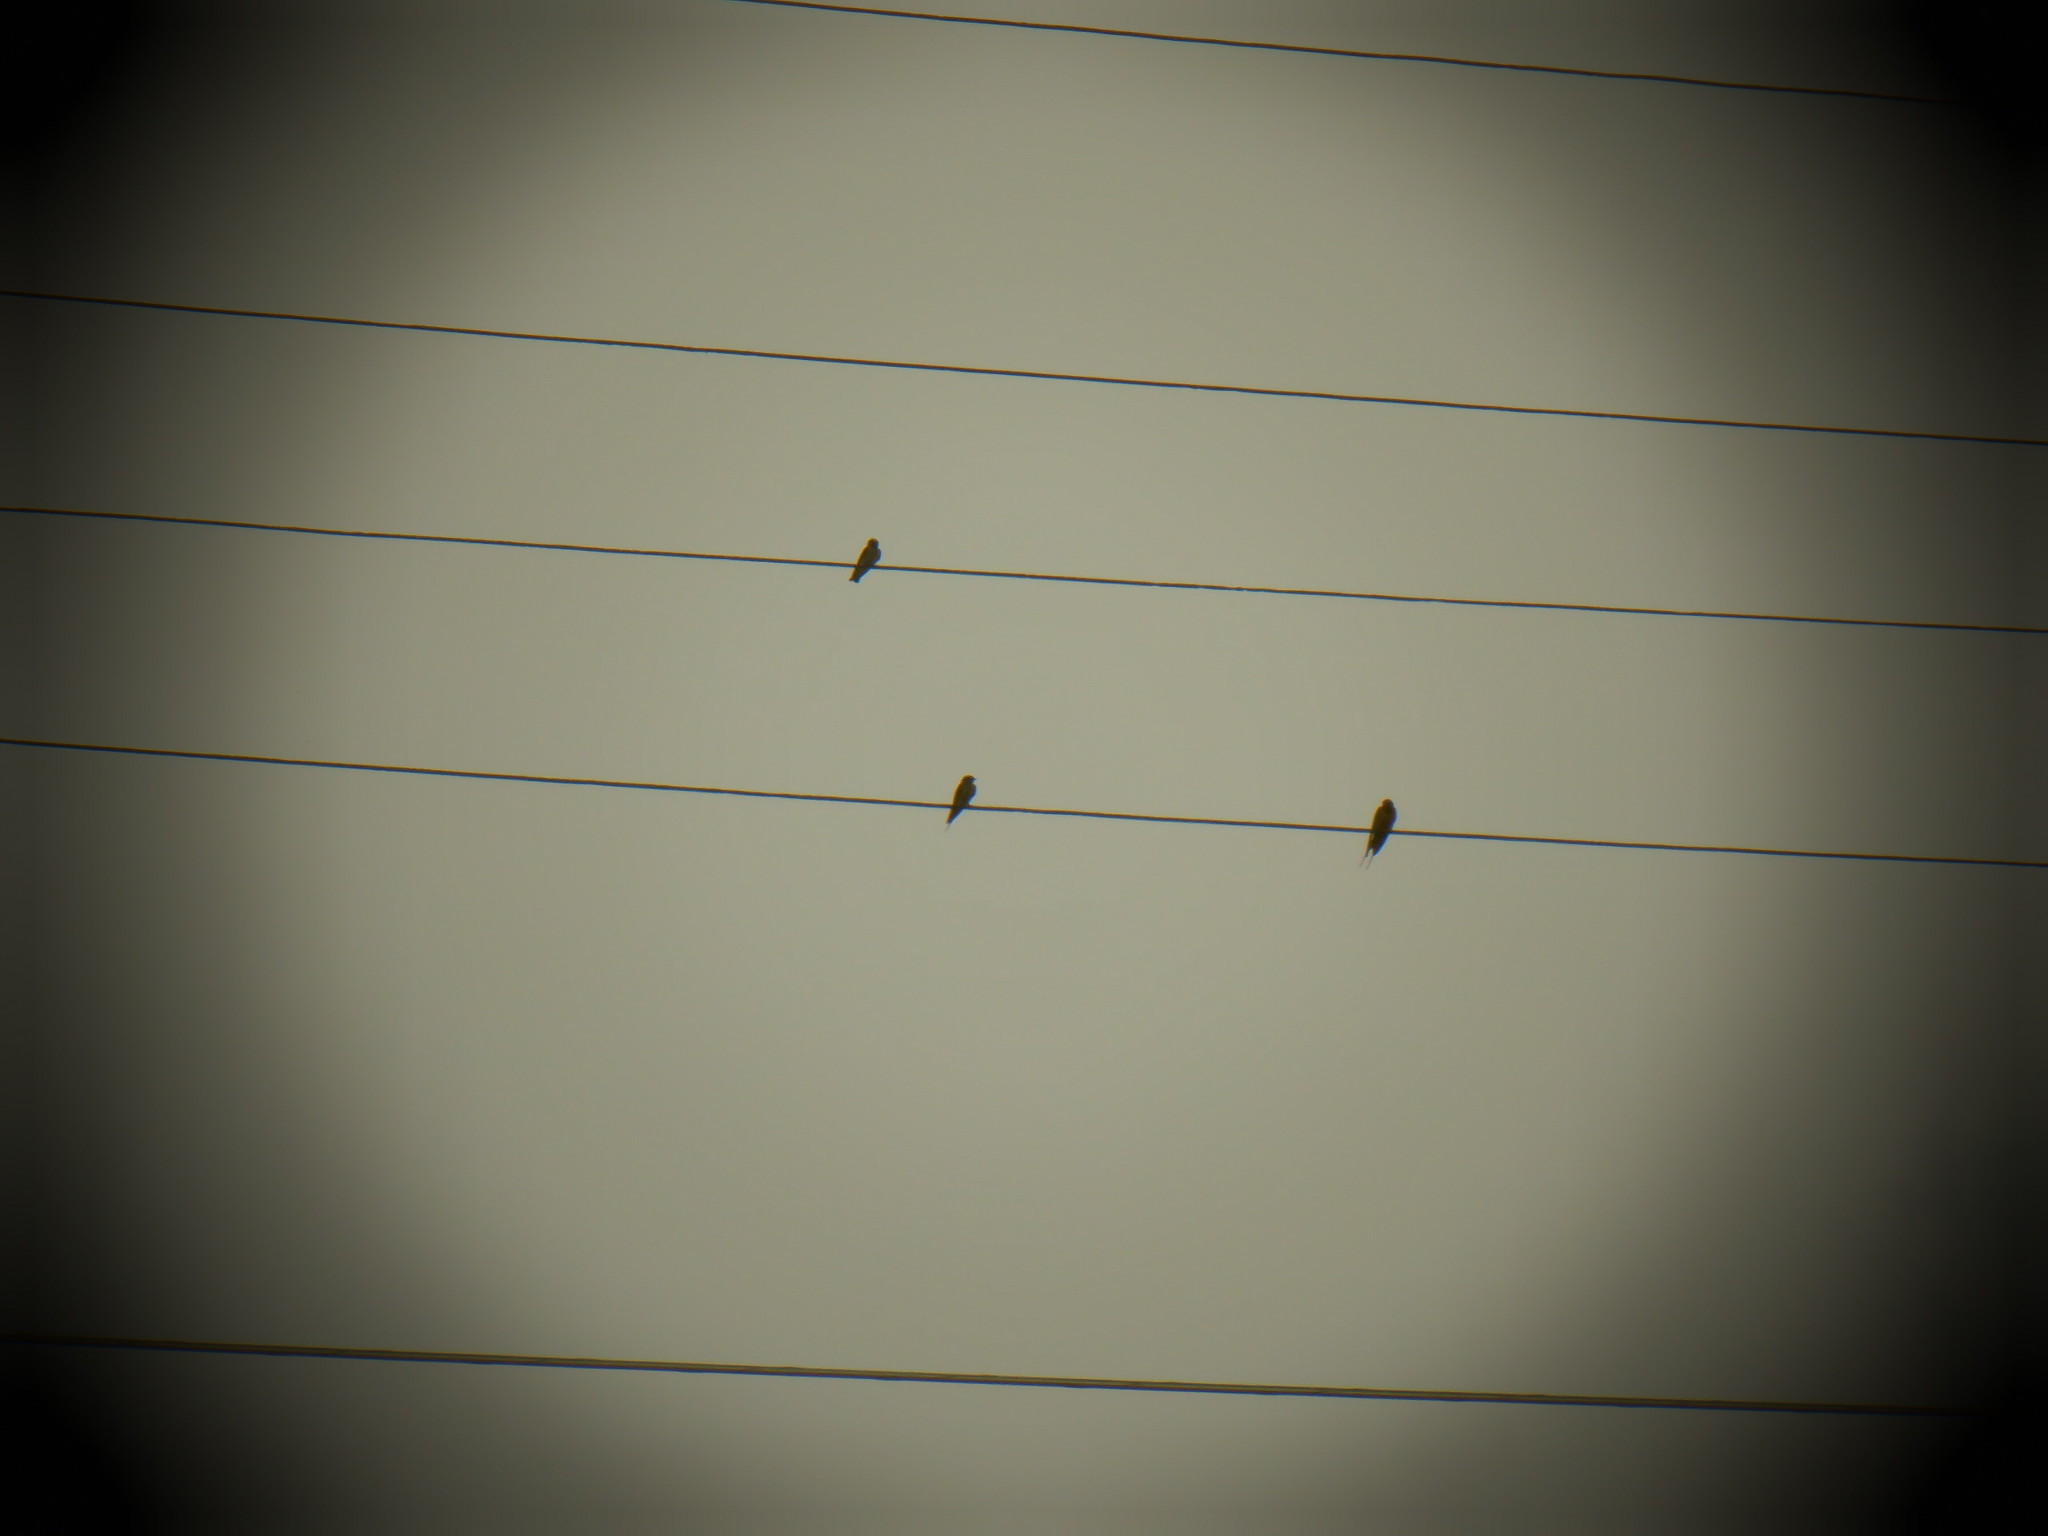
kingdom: Animalia
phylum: Chordata
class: Aves
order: Passeriformes
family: Hirundinidae
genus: Hirundo
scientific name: Hirundo rustica
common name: Barn swallow
